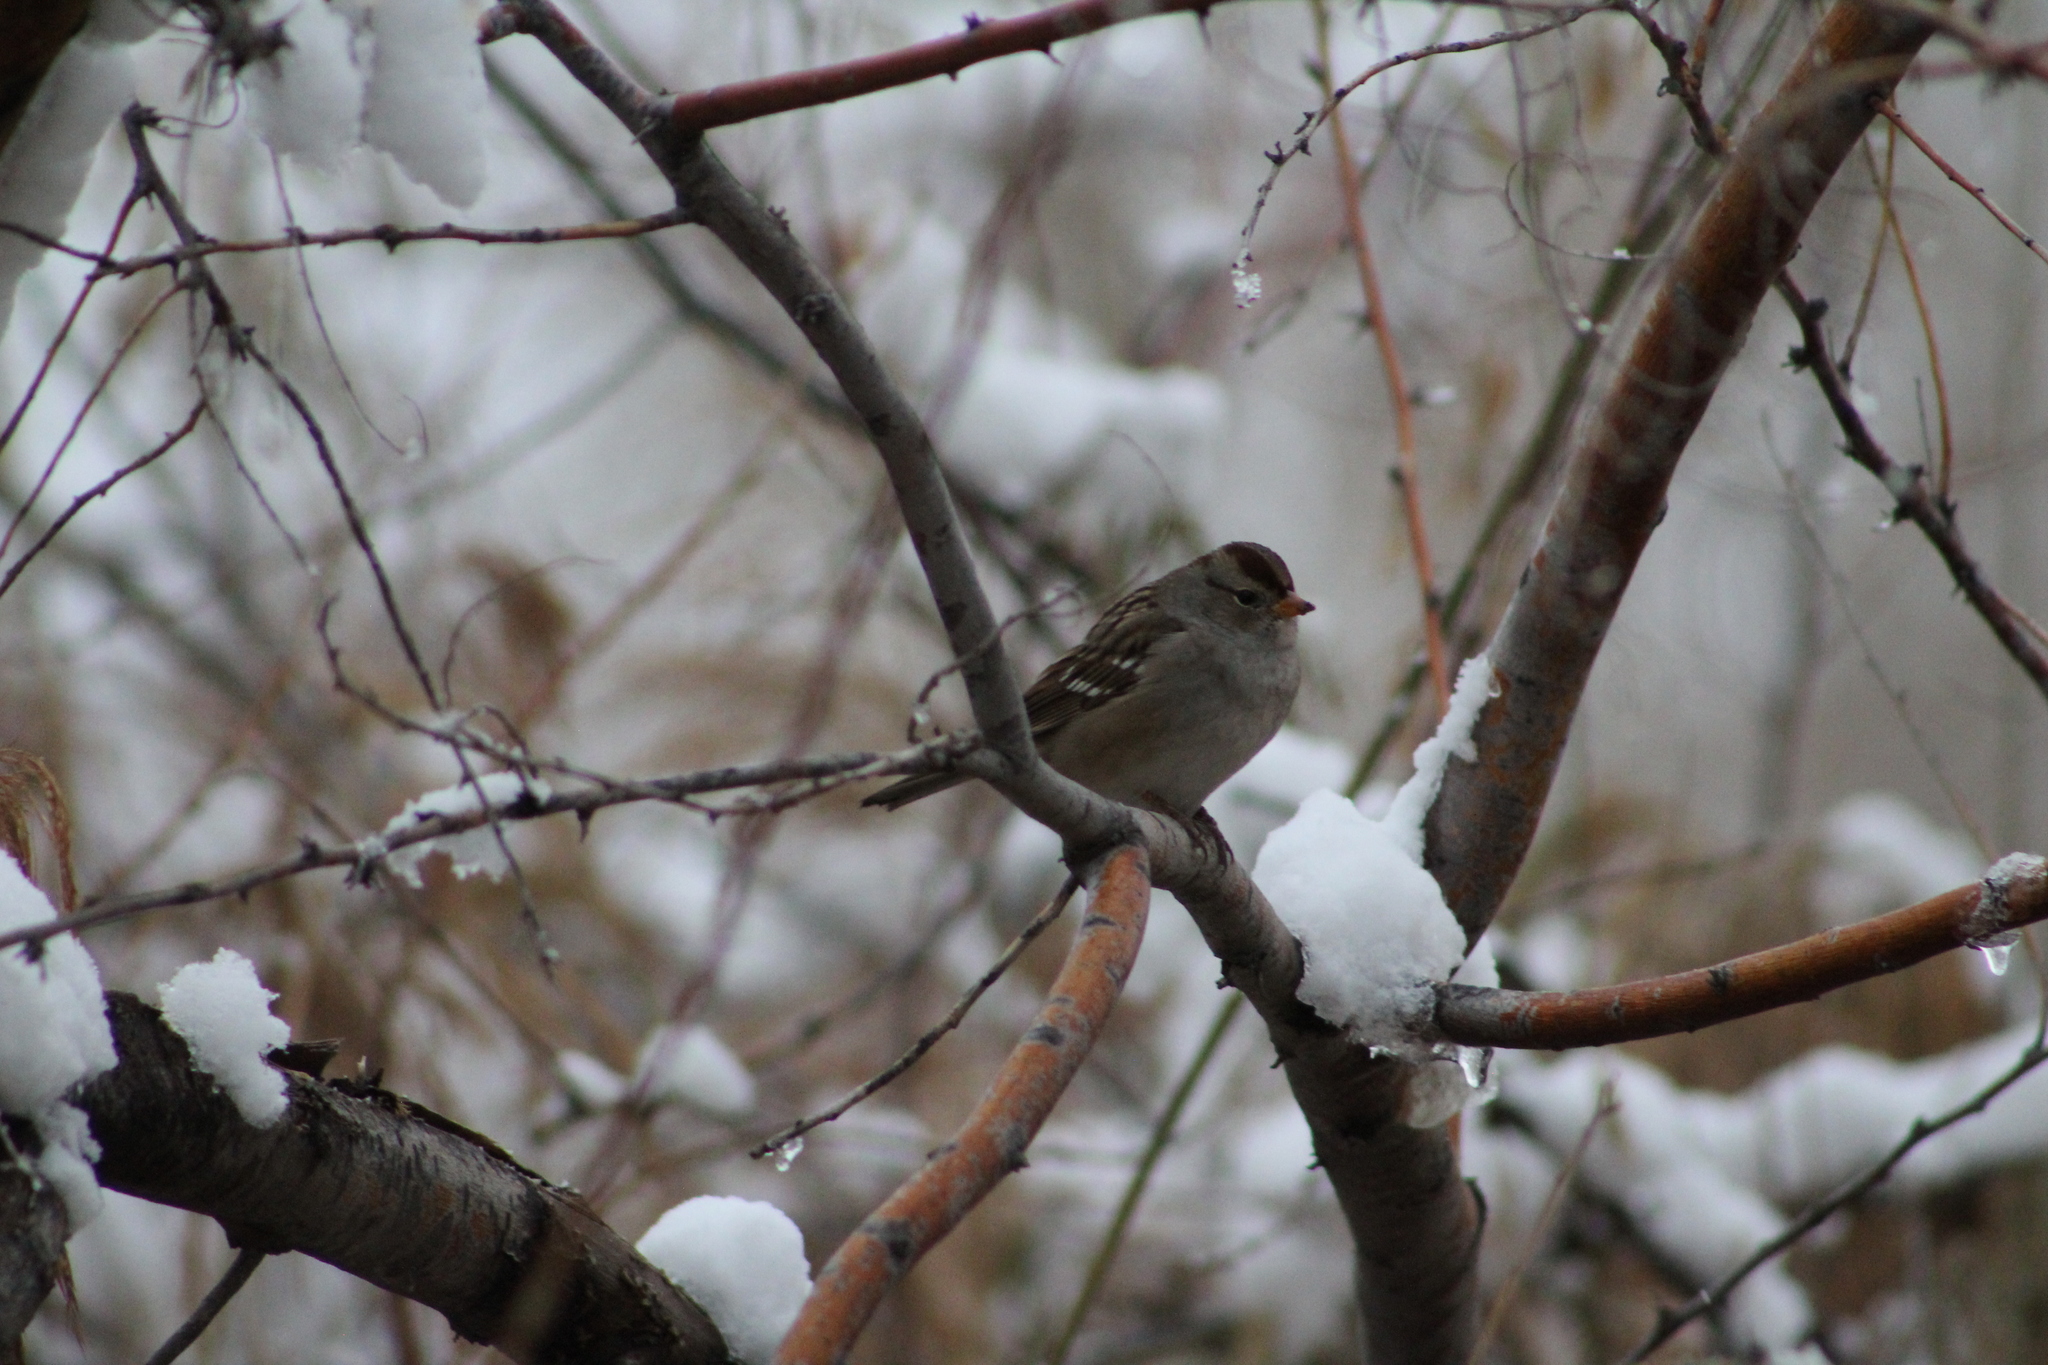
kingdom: Animalia
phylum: Chordata
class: Aves
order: Passeriformes
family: Passerellidae
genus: Zonotrichia
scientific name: Zonotrichia leucophrys
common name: White-crowned sparrow
